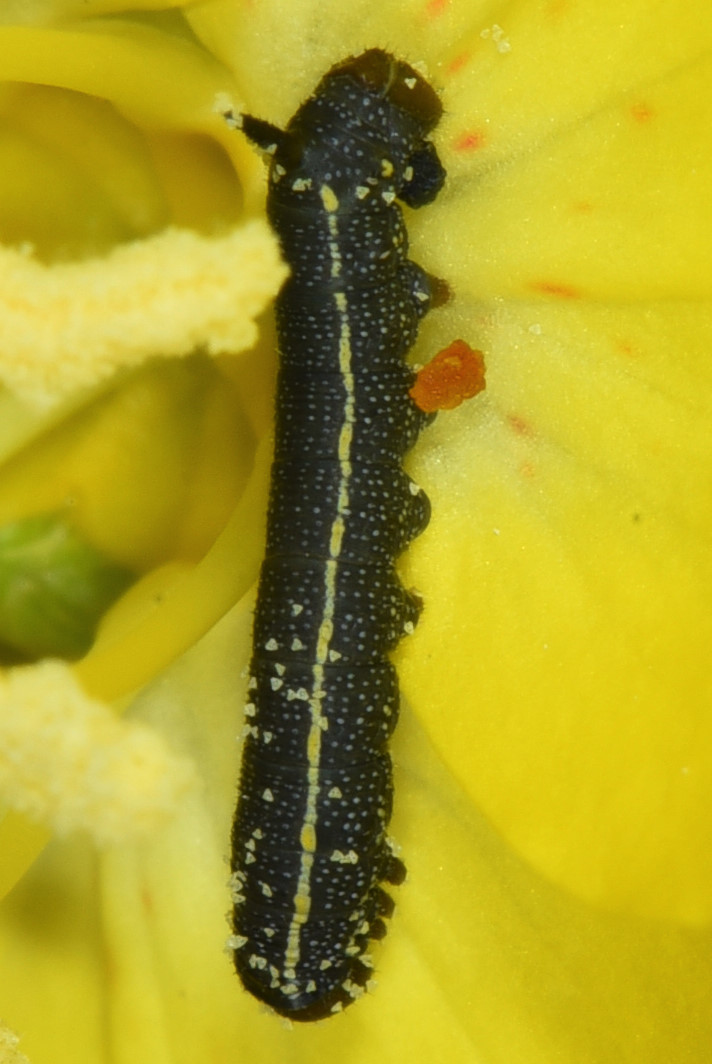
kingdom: Animalia
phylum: Arthropoda
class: Insecta
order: Lepidoptera
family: Sphingidae
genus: Hyles
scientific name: Hyles lineata
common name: White-lined sphinx
